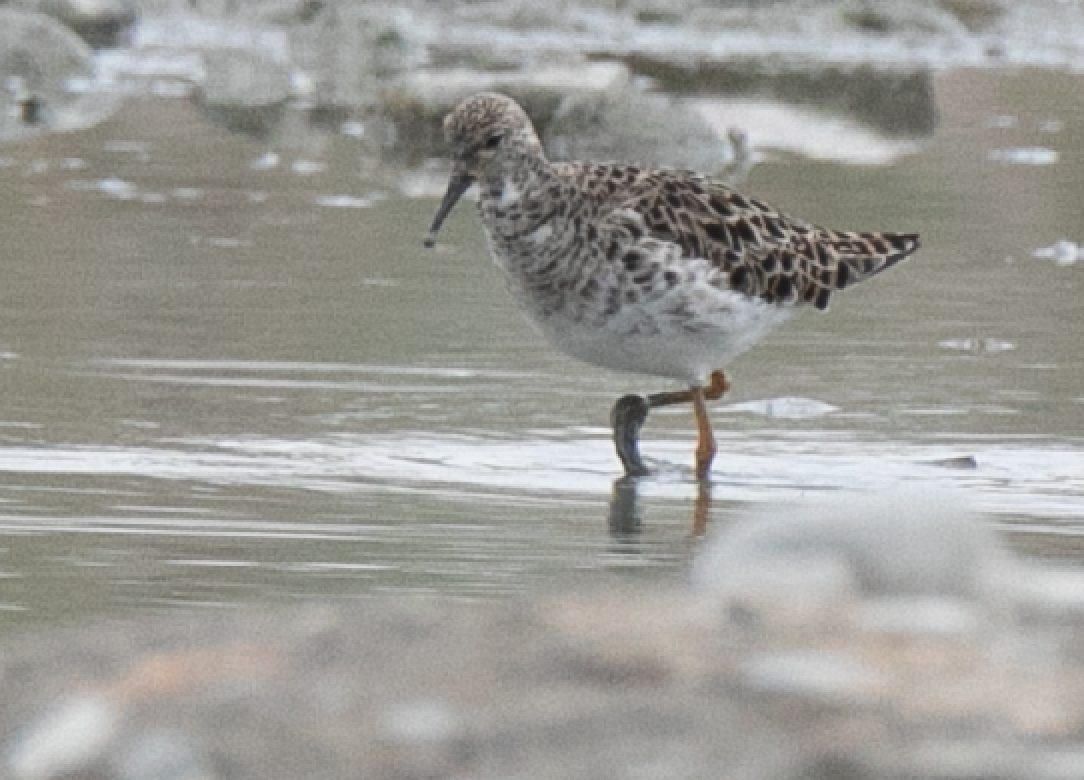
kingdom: Animalia
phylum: Chordata
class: Aves
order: Charadriiformes
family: Scolopacidae
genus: Calidris
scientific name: Calidris pugnax
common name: Ruff
